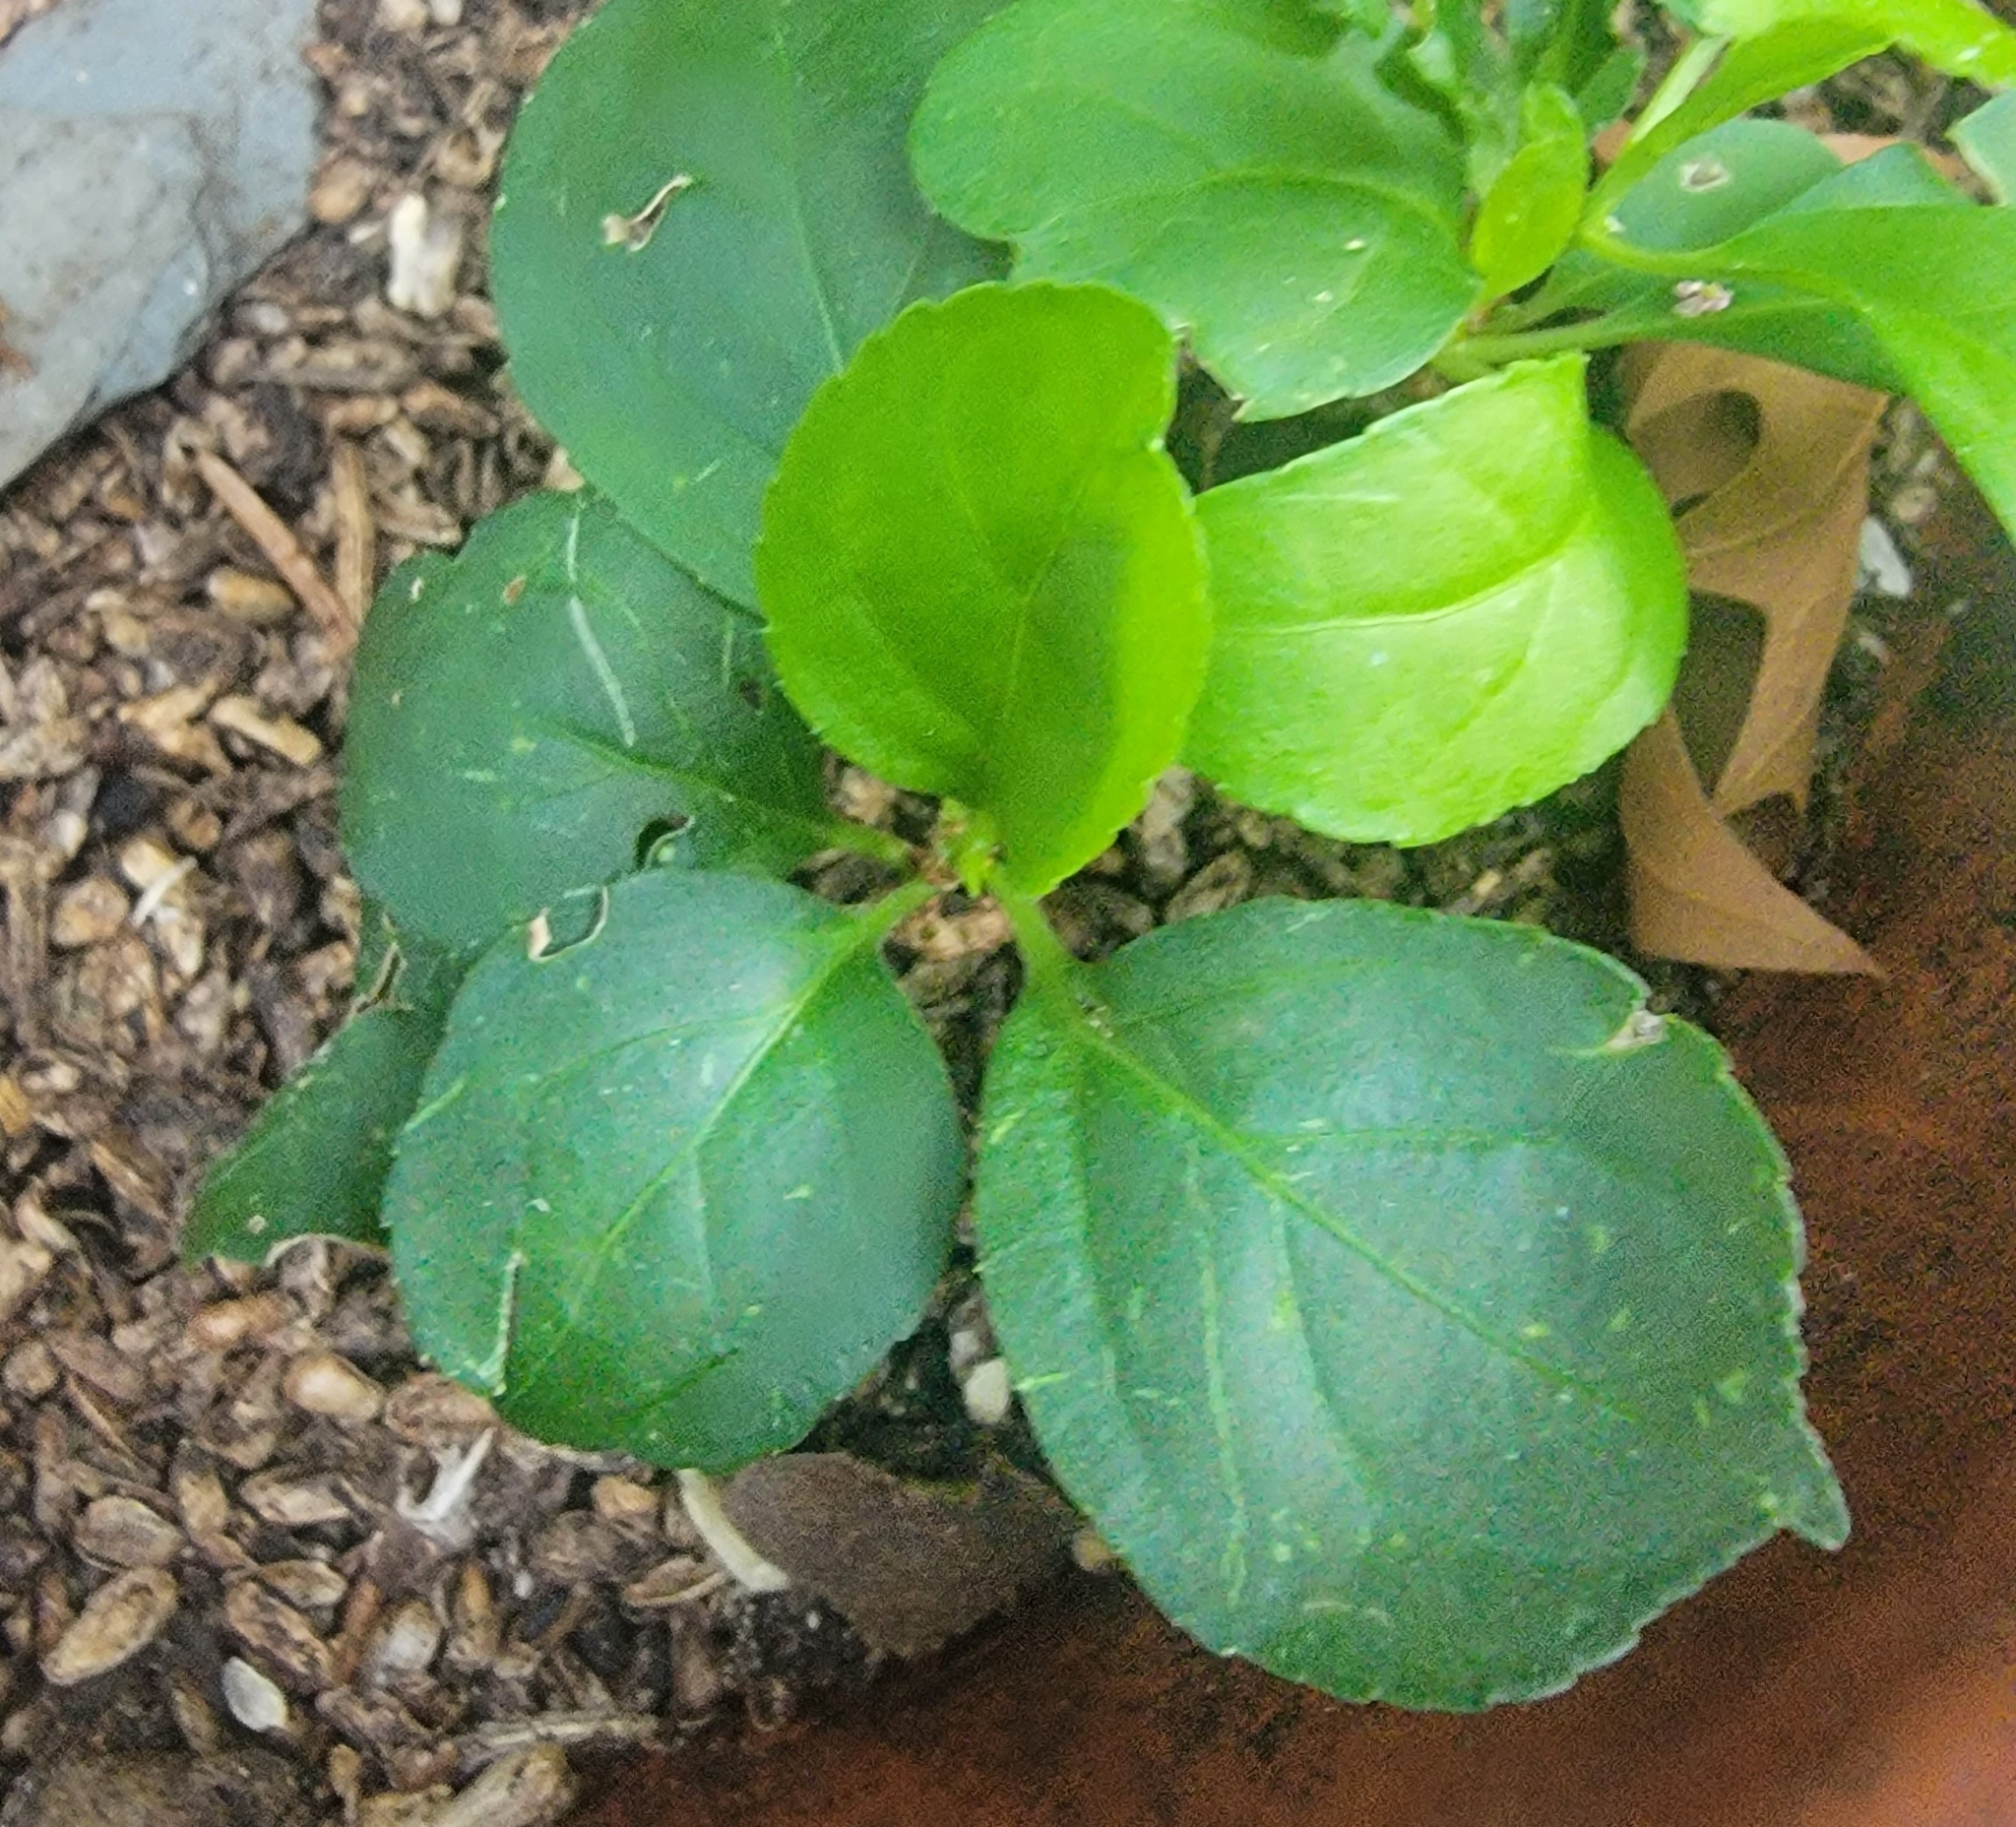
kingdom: Plantae
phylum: Tracheophyta
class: Magnoliopsida
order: Celastrales
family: Celastraceae
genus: Celastrus
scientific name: Celastrus orbiculatus
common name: Oriental bittersweet
